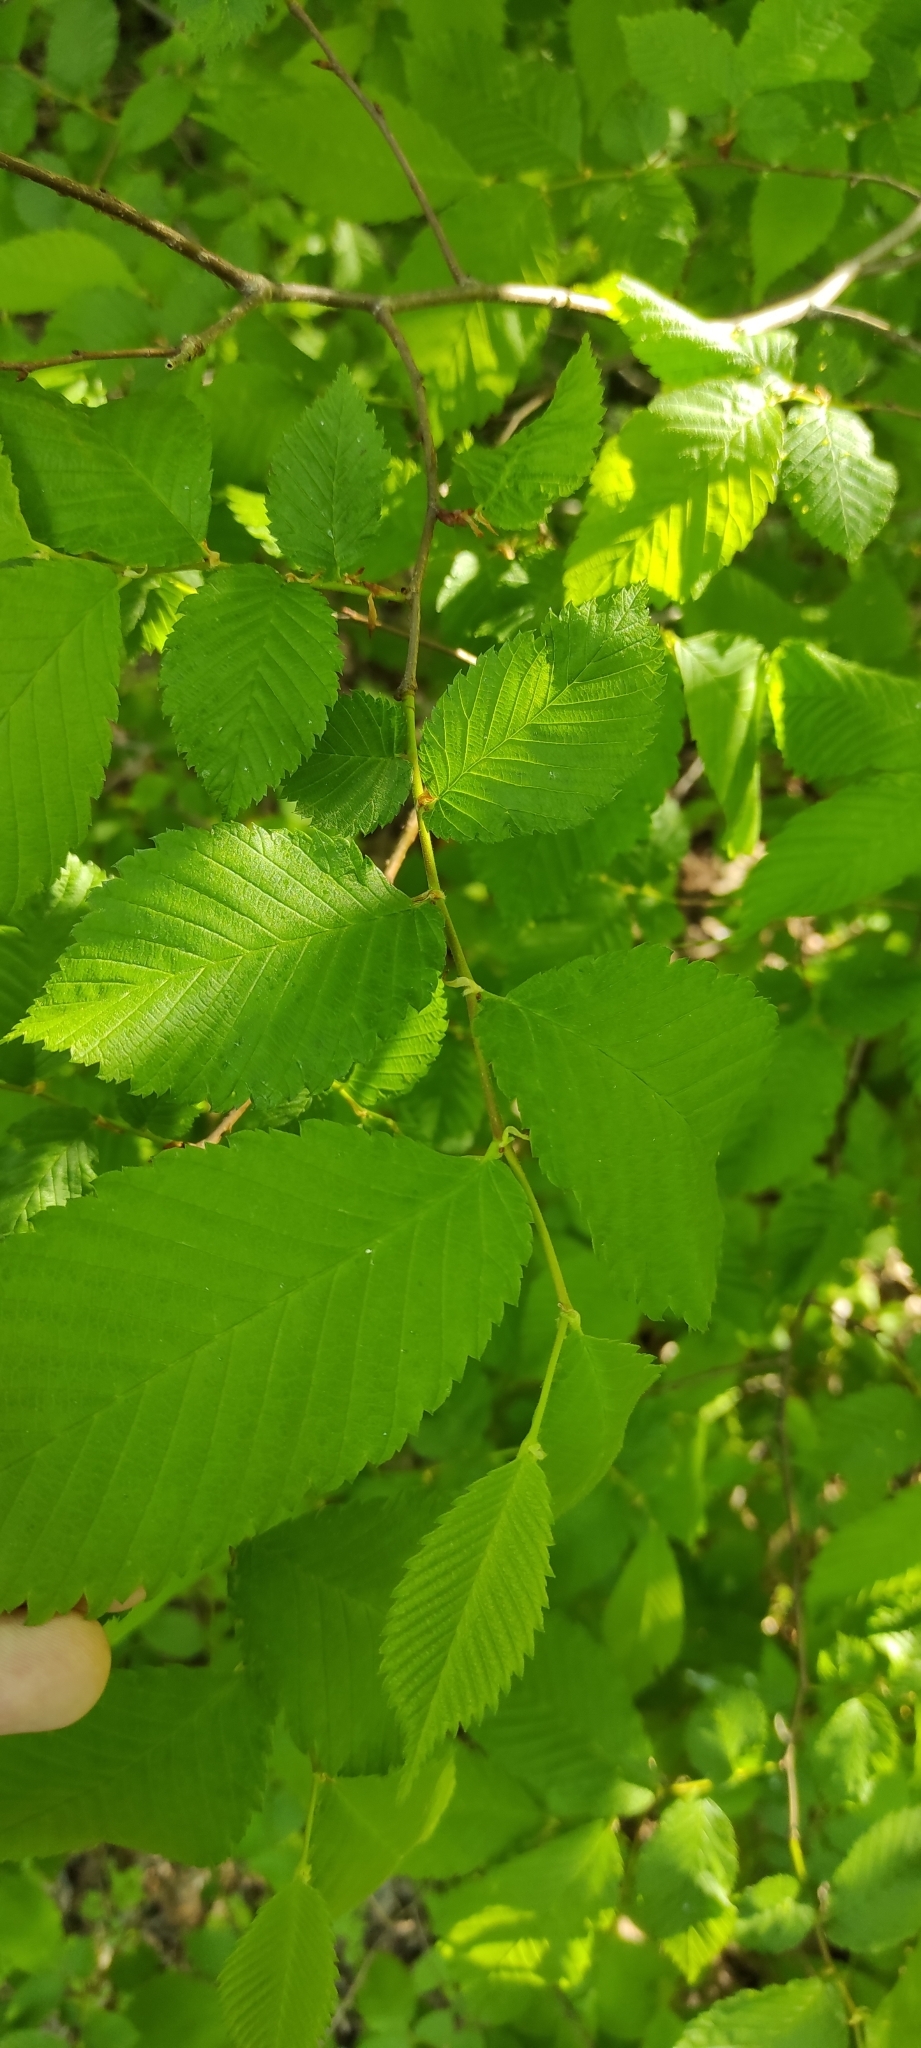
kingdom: Plantae
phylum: Tracheophyta
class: Magnoliopsida
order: Rosales
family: Ulmaceae
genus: Ulmus
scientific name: Ulmus laevis
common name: European white-elm
